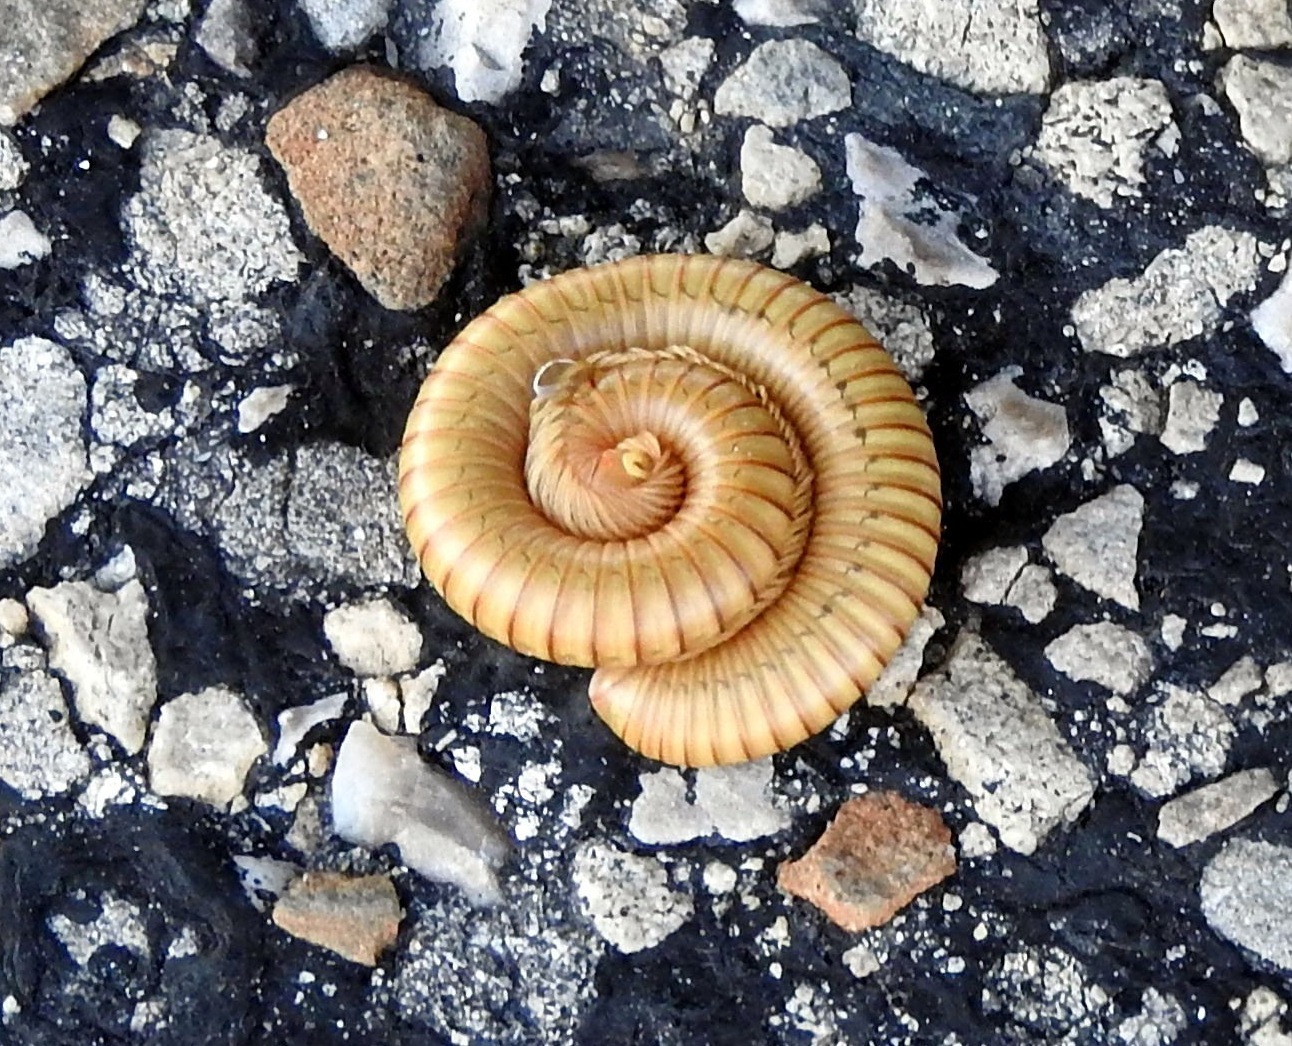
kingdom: Animalia
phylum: Arthropoda
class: Diplopoda
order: Spirostreptida
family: Spirostreptidae
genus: Orthoporus
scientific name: Orthoporus flavior
